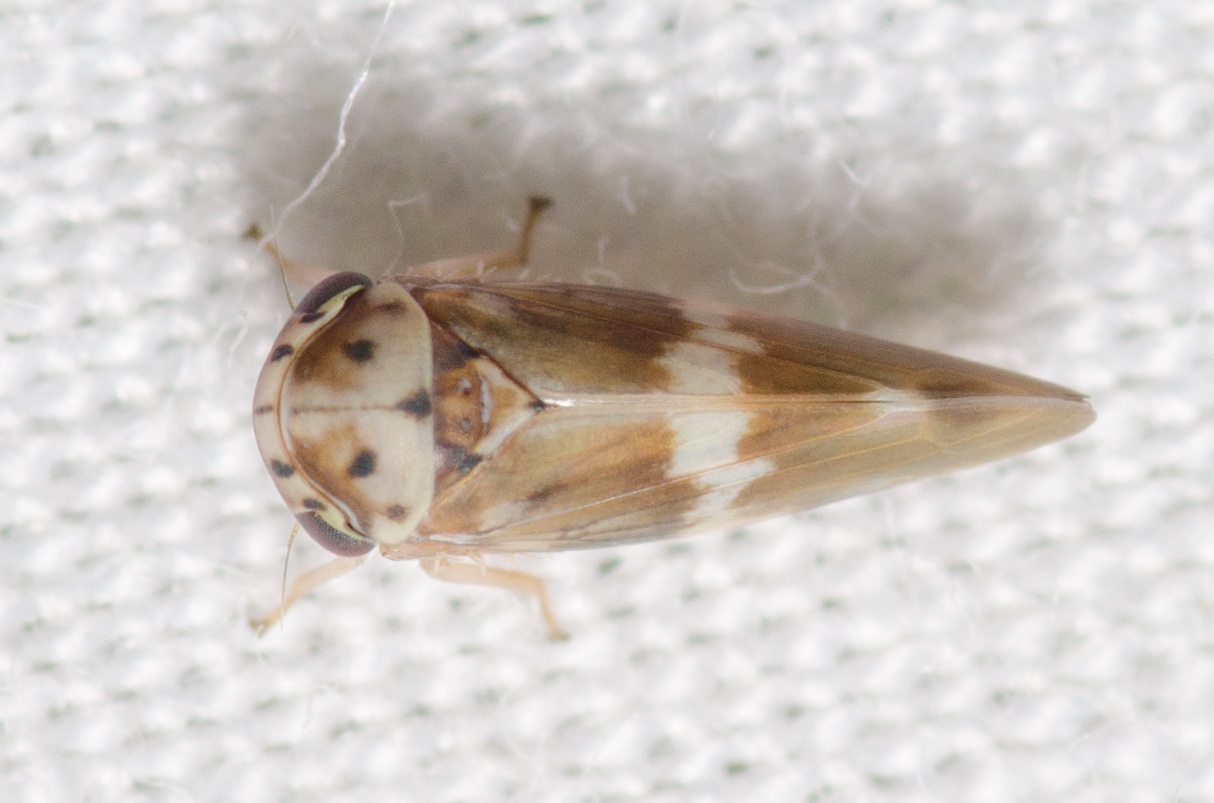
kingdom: Animalia
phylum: Arthropoda
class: Insecta
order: Hemiptera
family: Cicadellidae
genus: Agalliopsis
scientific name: Agalliopsis cervina
